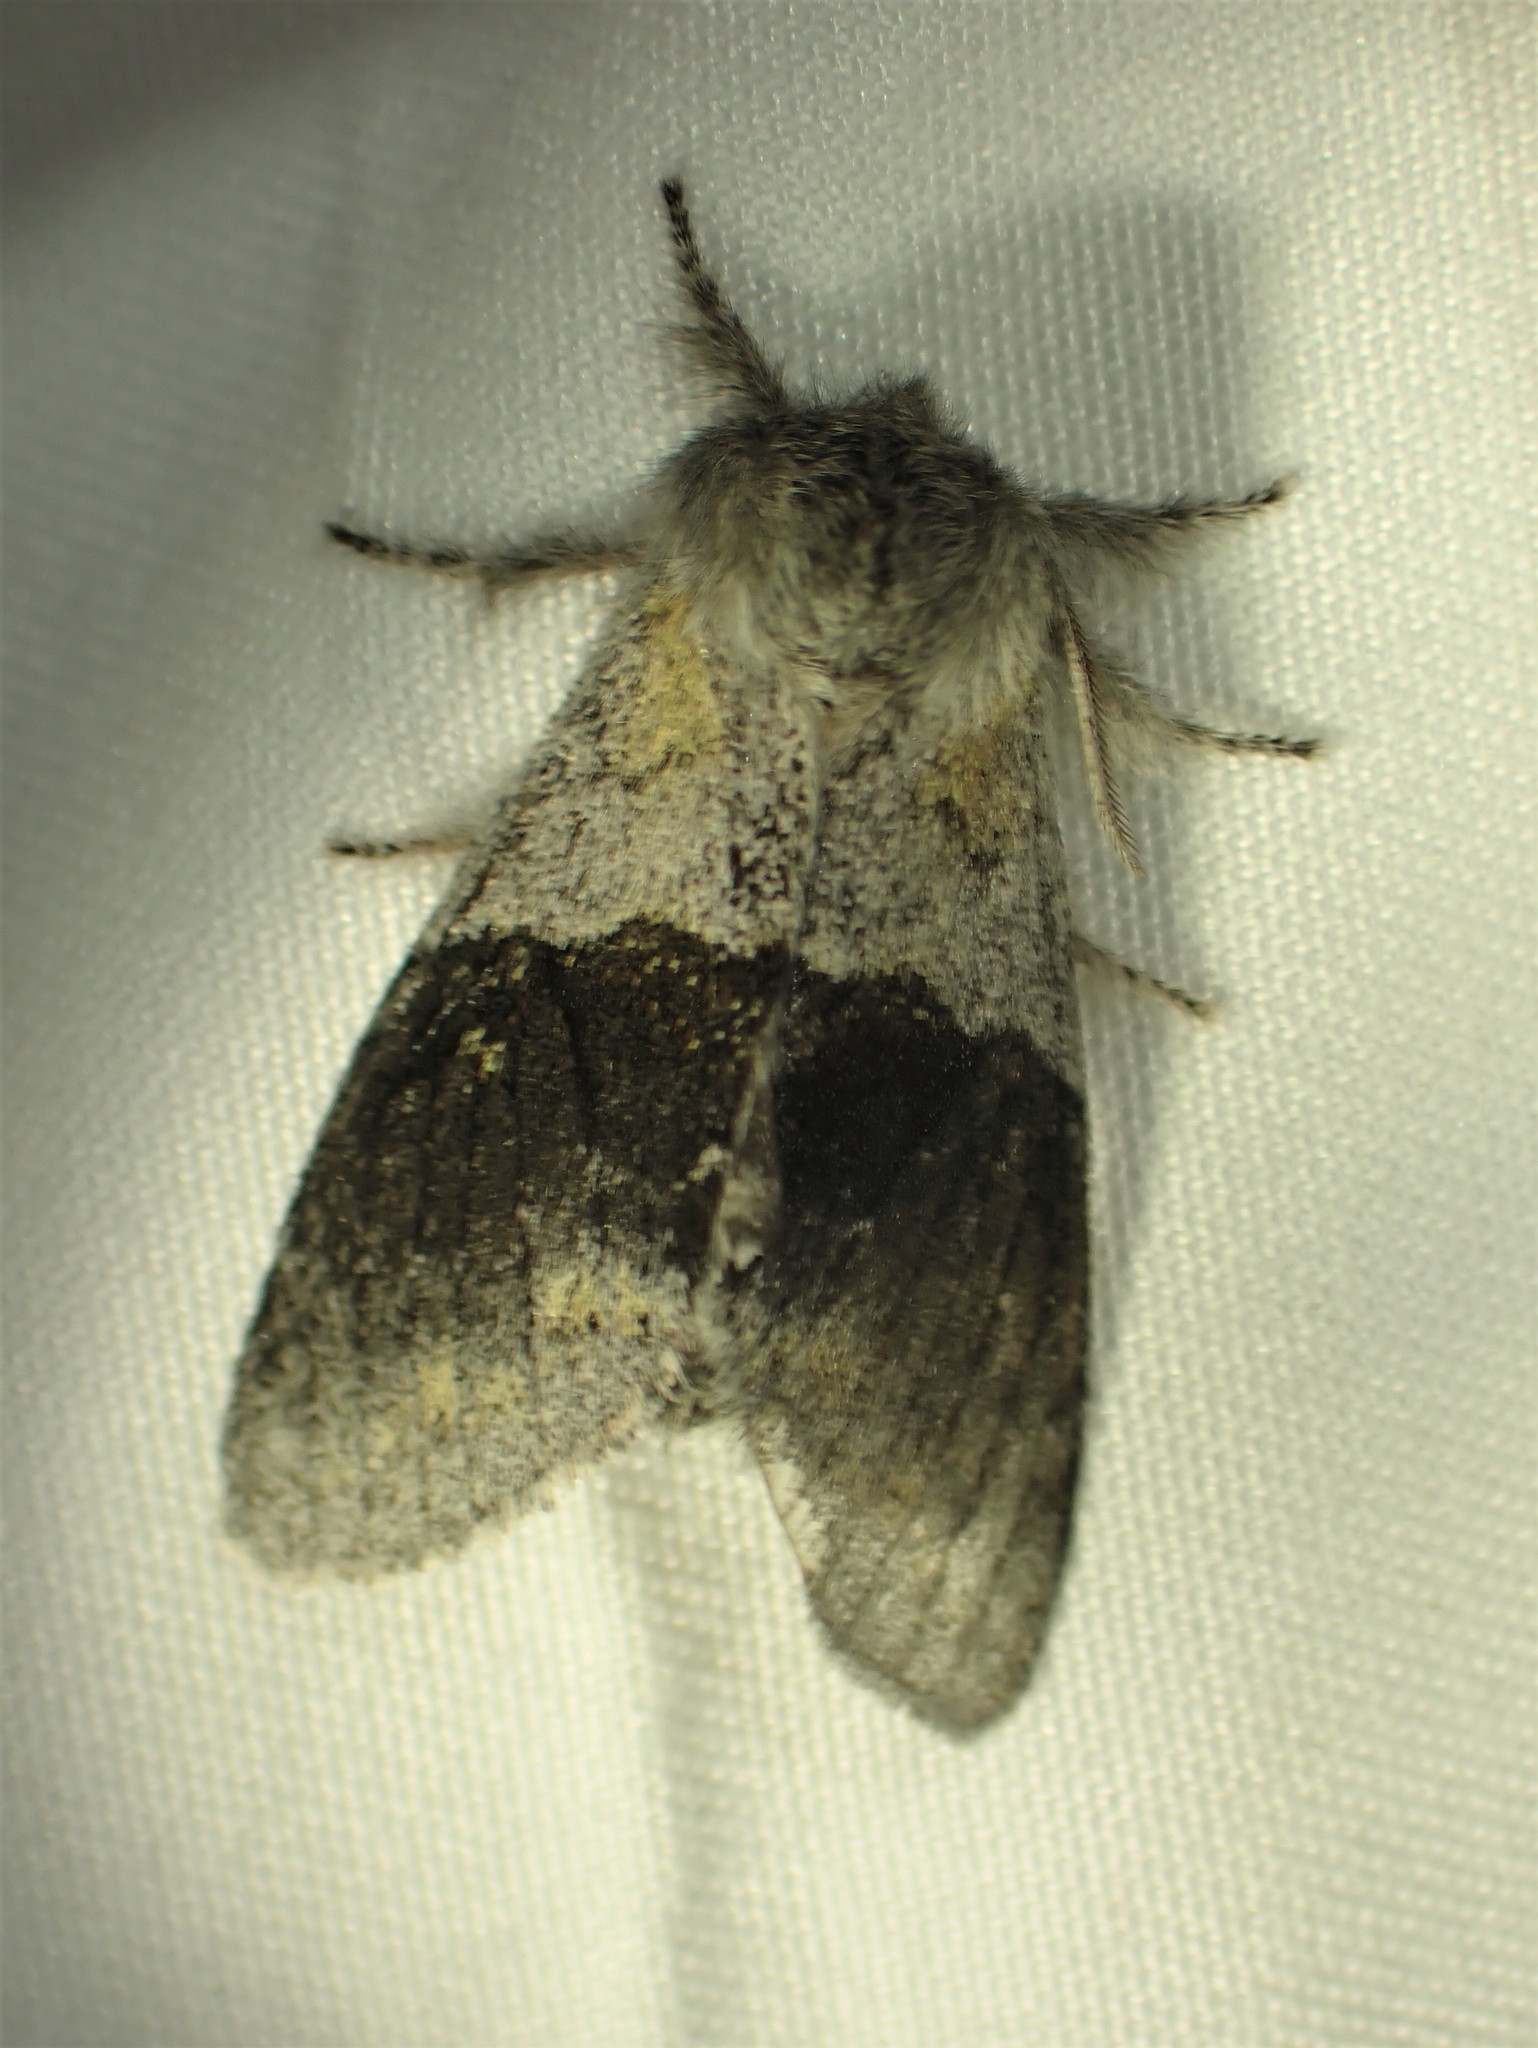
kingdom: Animalia
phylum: Arthropoda
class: Insecta
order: Lepidoptera
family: Notodontidae
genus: Gluphisia
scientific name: Gluphisia lintneri
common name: Lintner's gluphisia moth
